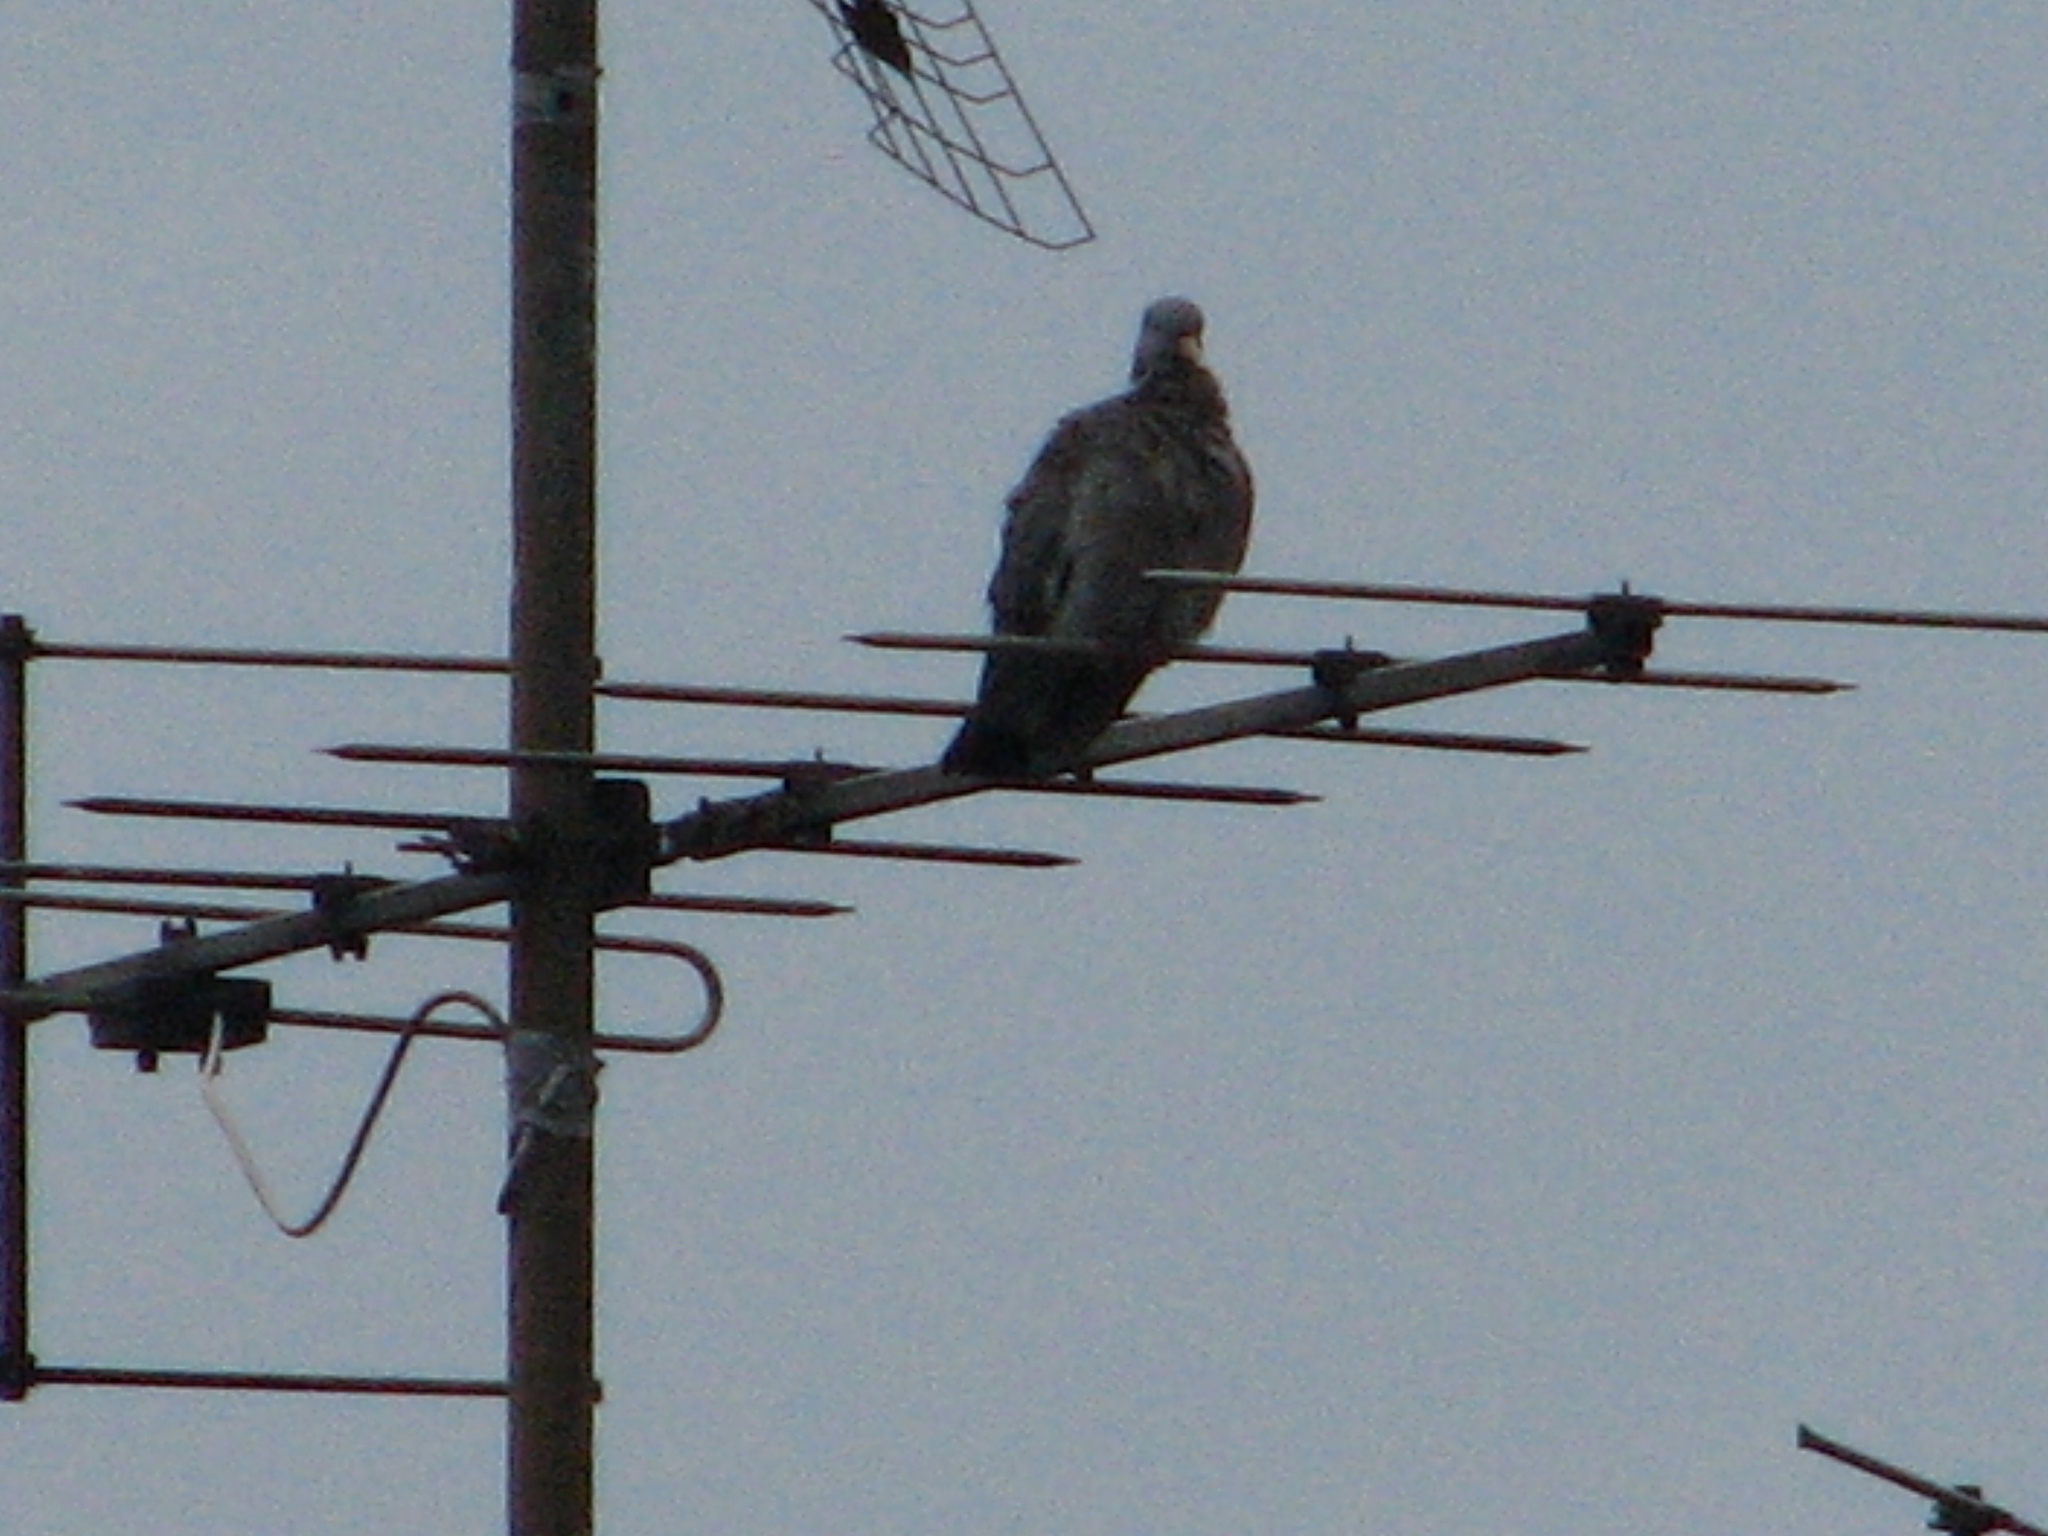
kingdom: Animalia
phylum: Chordata
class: Aves
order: Columbiformes
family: Columbidae
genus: Columba
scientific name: Columba palumbus
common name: Common wood pigeon
